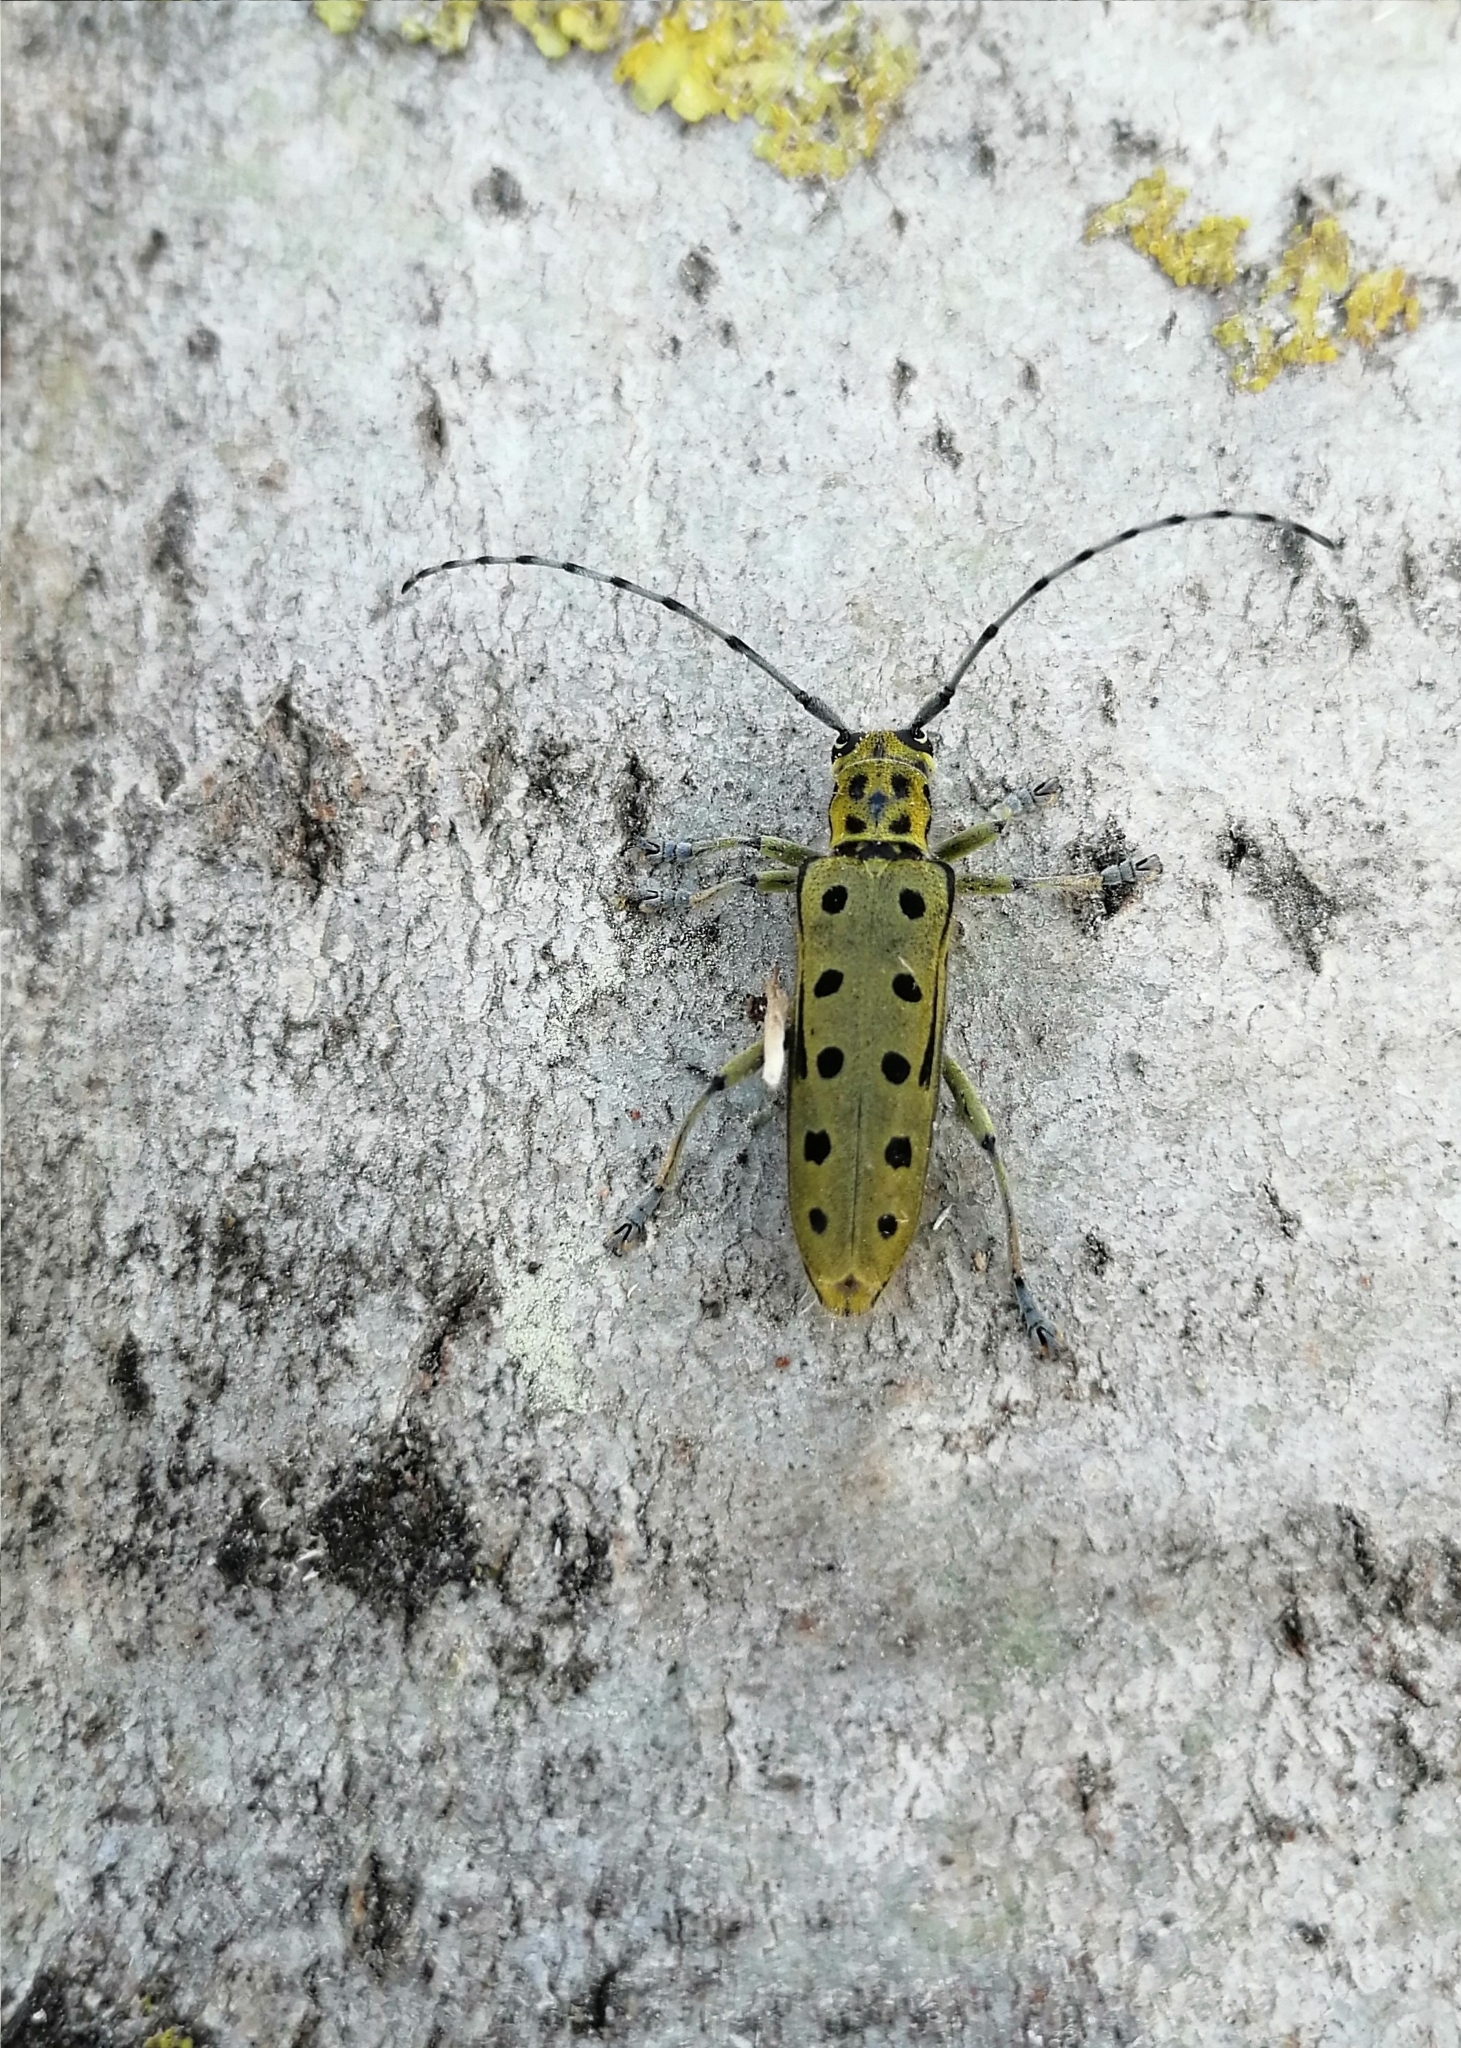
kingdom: Animalia
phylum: Arthropoda
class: Insecta
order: Coleoptera
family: Cerambycidae
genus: Saperda
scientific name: Saperda perforata
